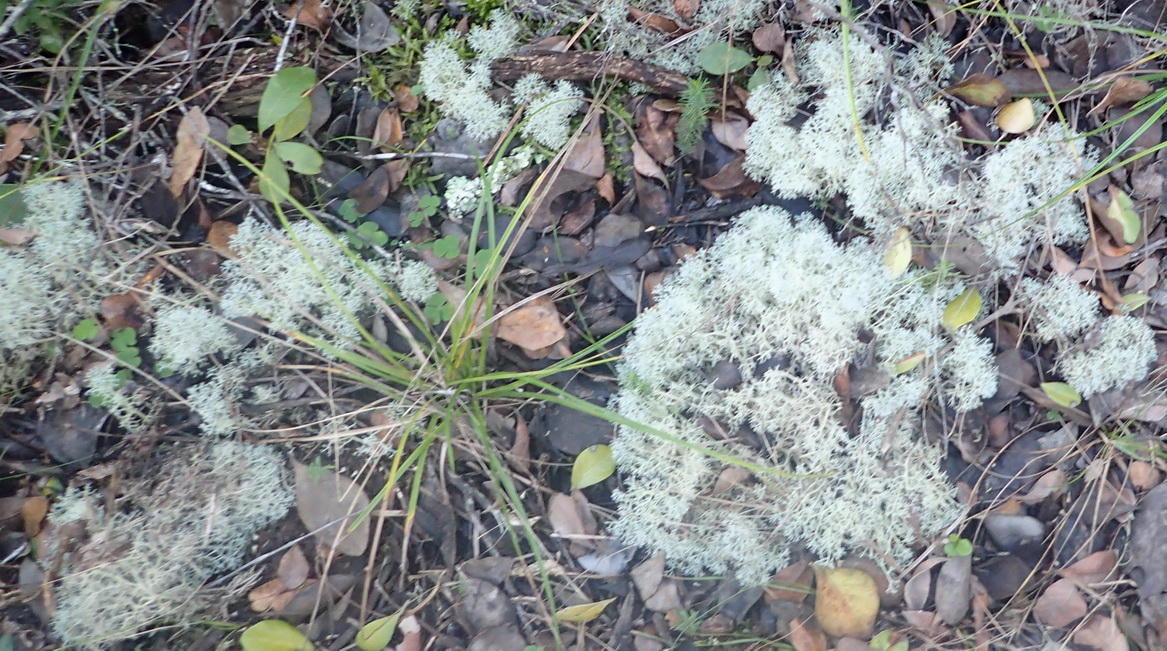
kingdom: Fungi
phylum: Ascomycota
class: Lecanoromycetes
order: Lecanorales
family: Cladoniaceae
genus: Cladonia
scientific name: Cladonia confusa
